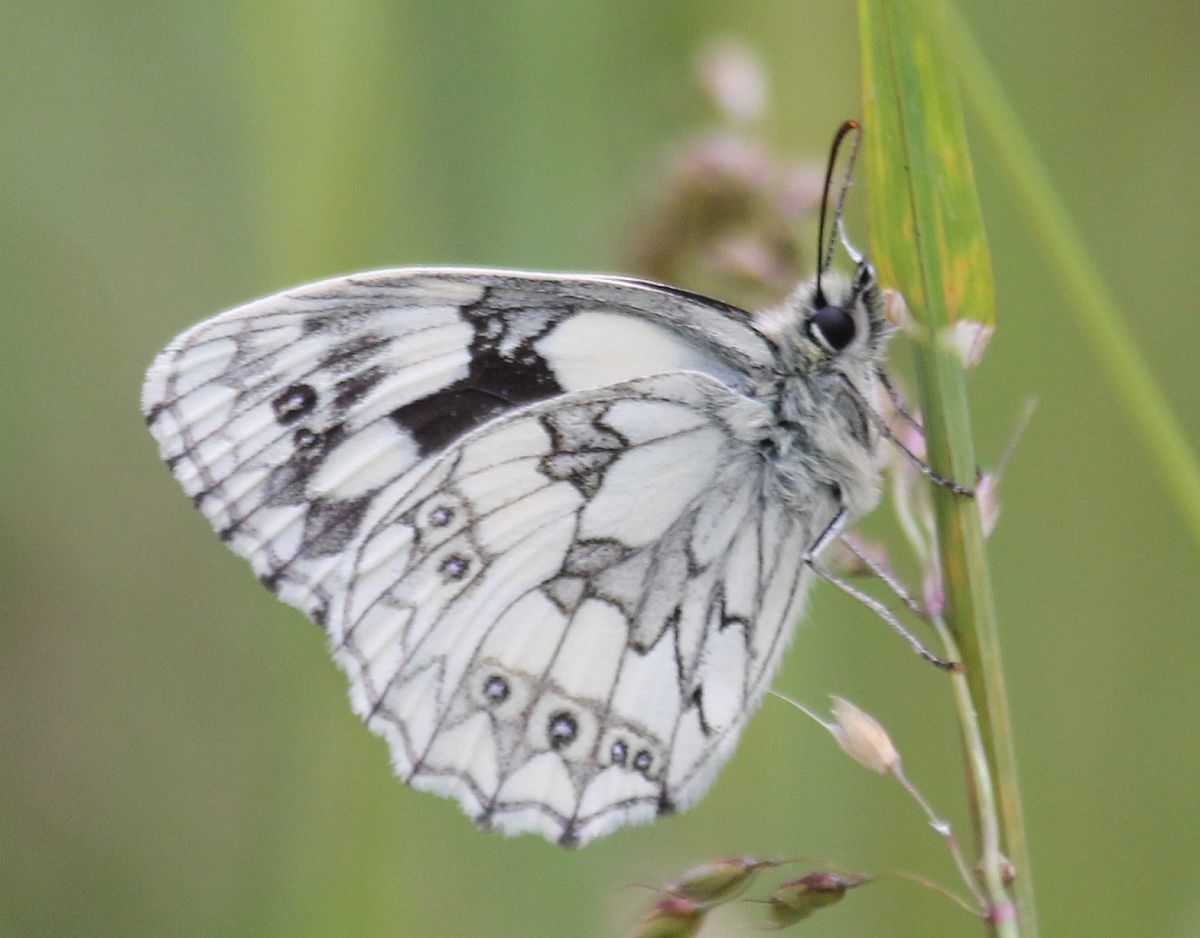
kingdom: Animalia
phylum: Arthropoda
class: Insecta
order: Lepidoptera
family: Nymphalidae
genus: Melanargia
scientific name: Melanargia galathea
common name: Marbled white
